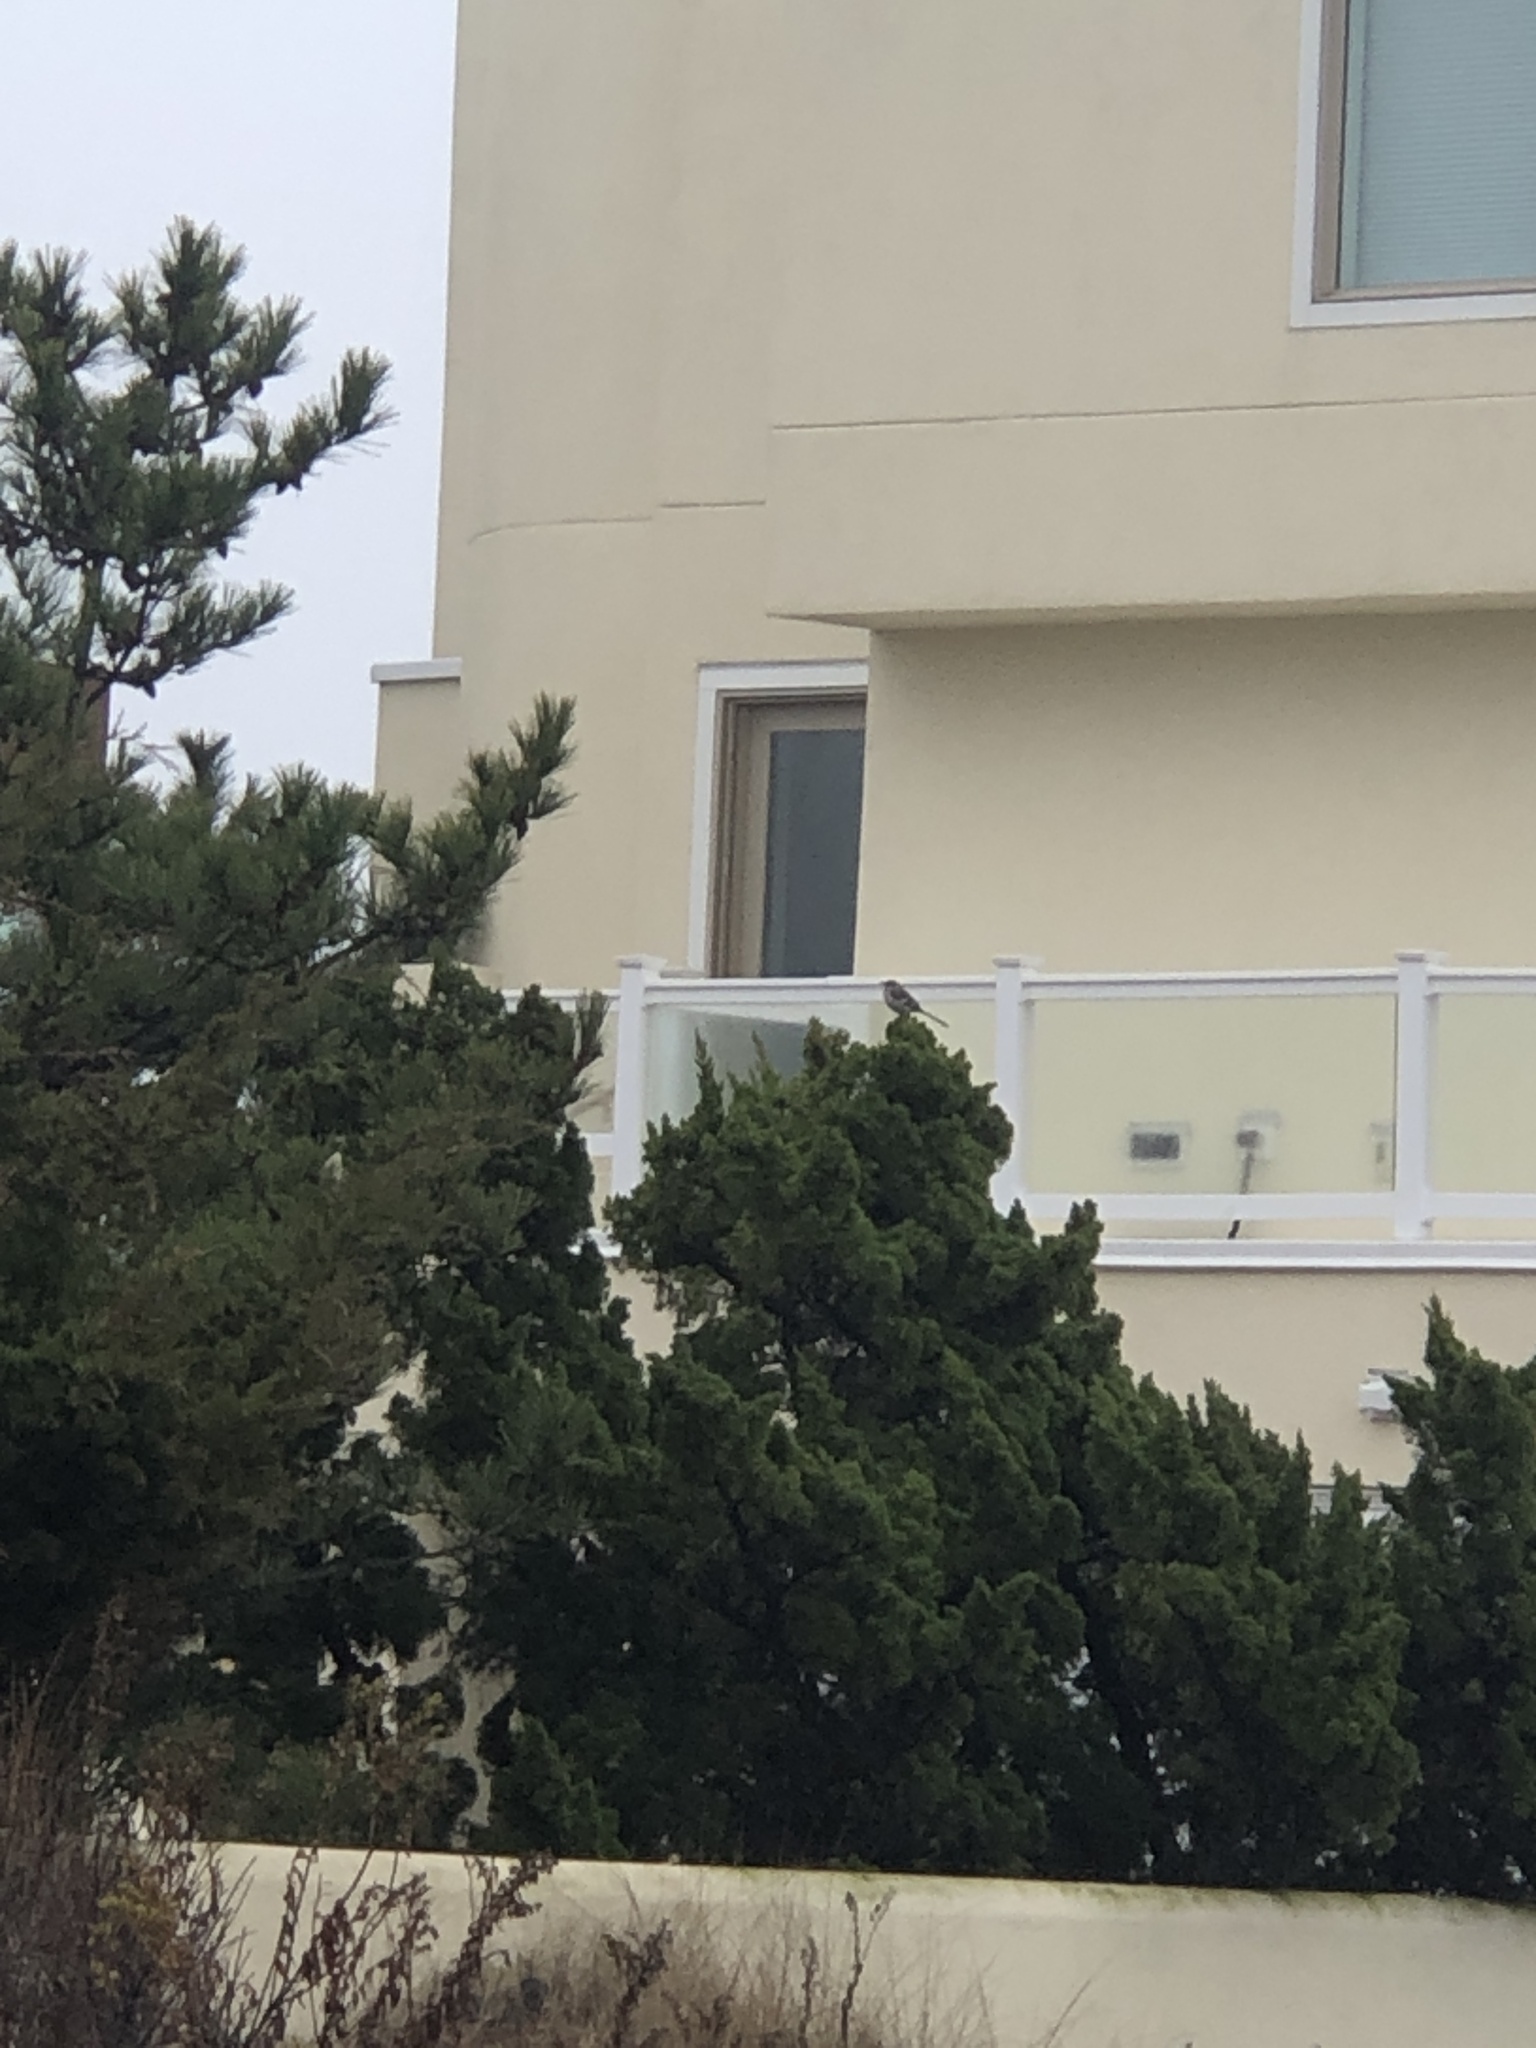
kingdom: Animalia
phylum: Chordata
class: Aves
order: Passeriformes
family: Mimidae
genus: Mimus
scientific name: Mimus polyglottos
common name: Northern mockingbird
